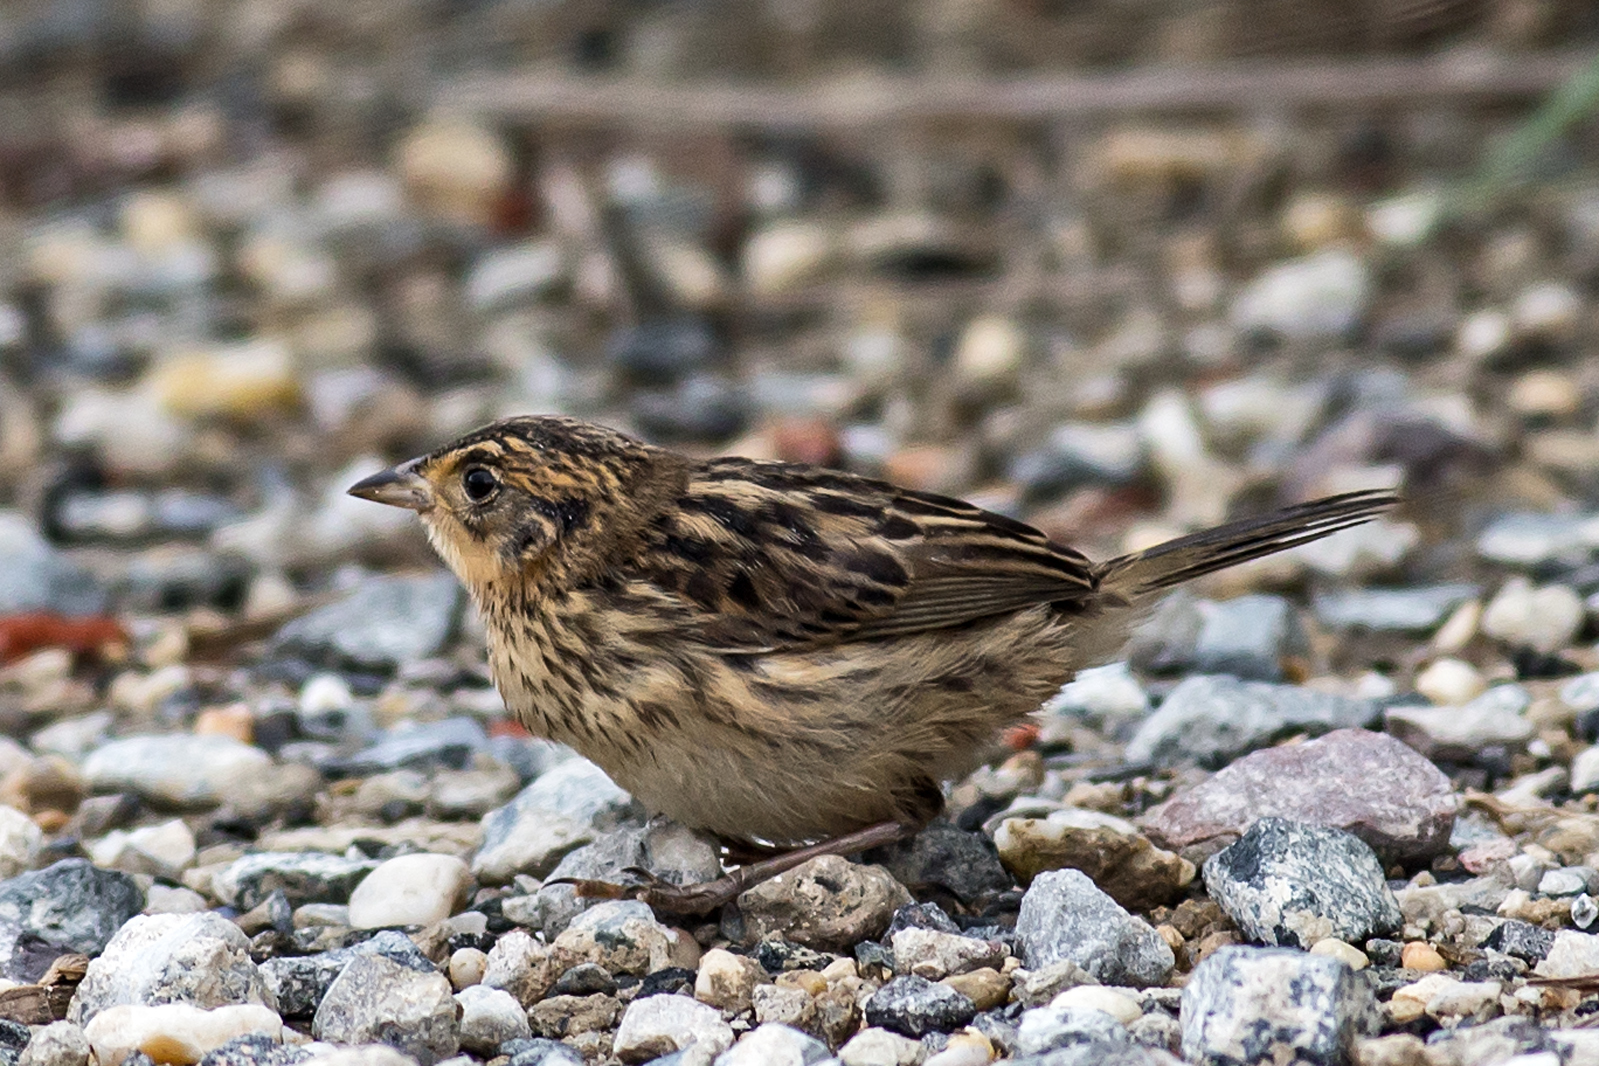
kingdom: Animalia
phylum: Chordata
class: Aves
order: Passeriformes
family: Passerellidae
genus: Ammospiza
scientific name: Ammospiza caudacuta
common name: Saltmarsh sparrow
